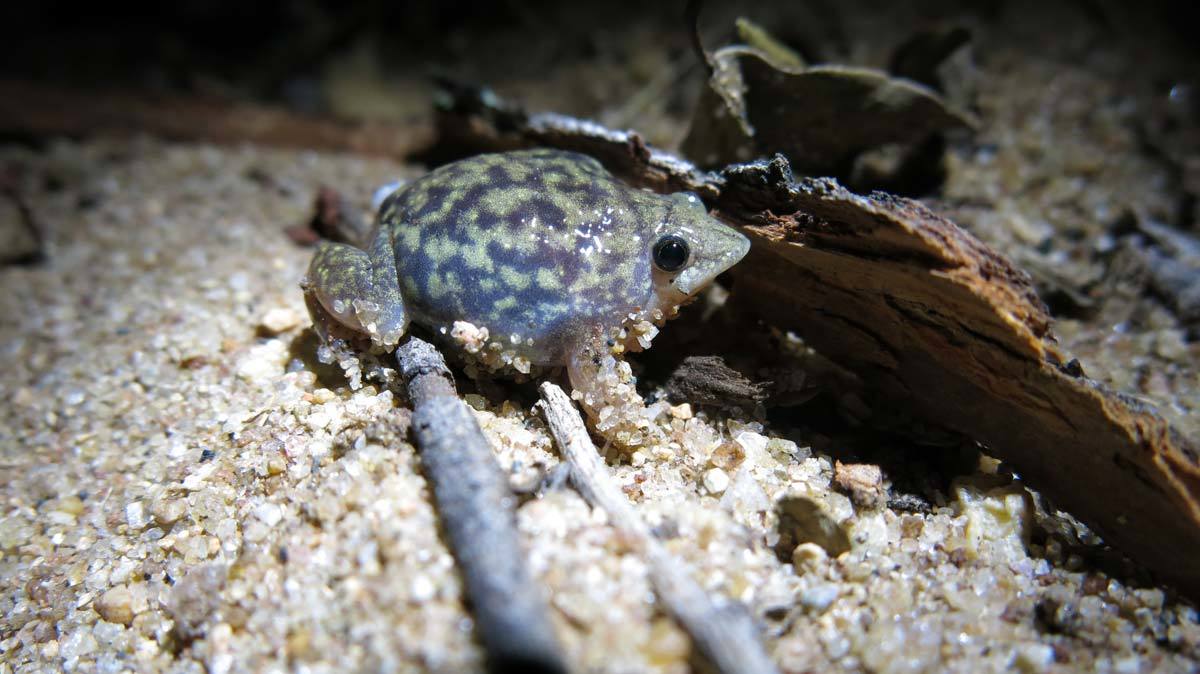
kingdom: Animalia
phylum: Chordata
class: Amphibia
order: Anura
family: Hemisotidae
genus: Hemisus
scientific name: Hemisus marmoratus
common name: Mottled shovel-nosed frog
